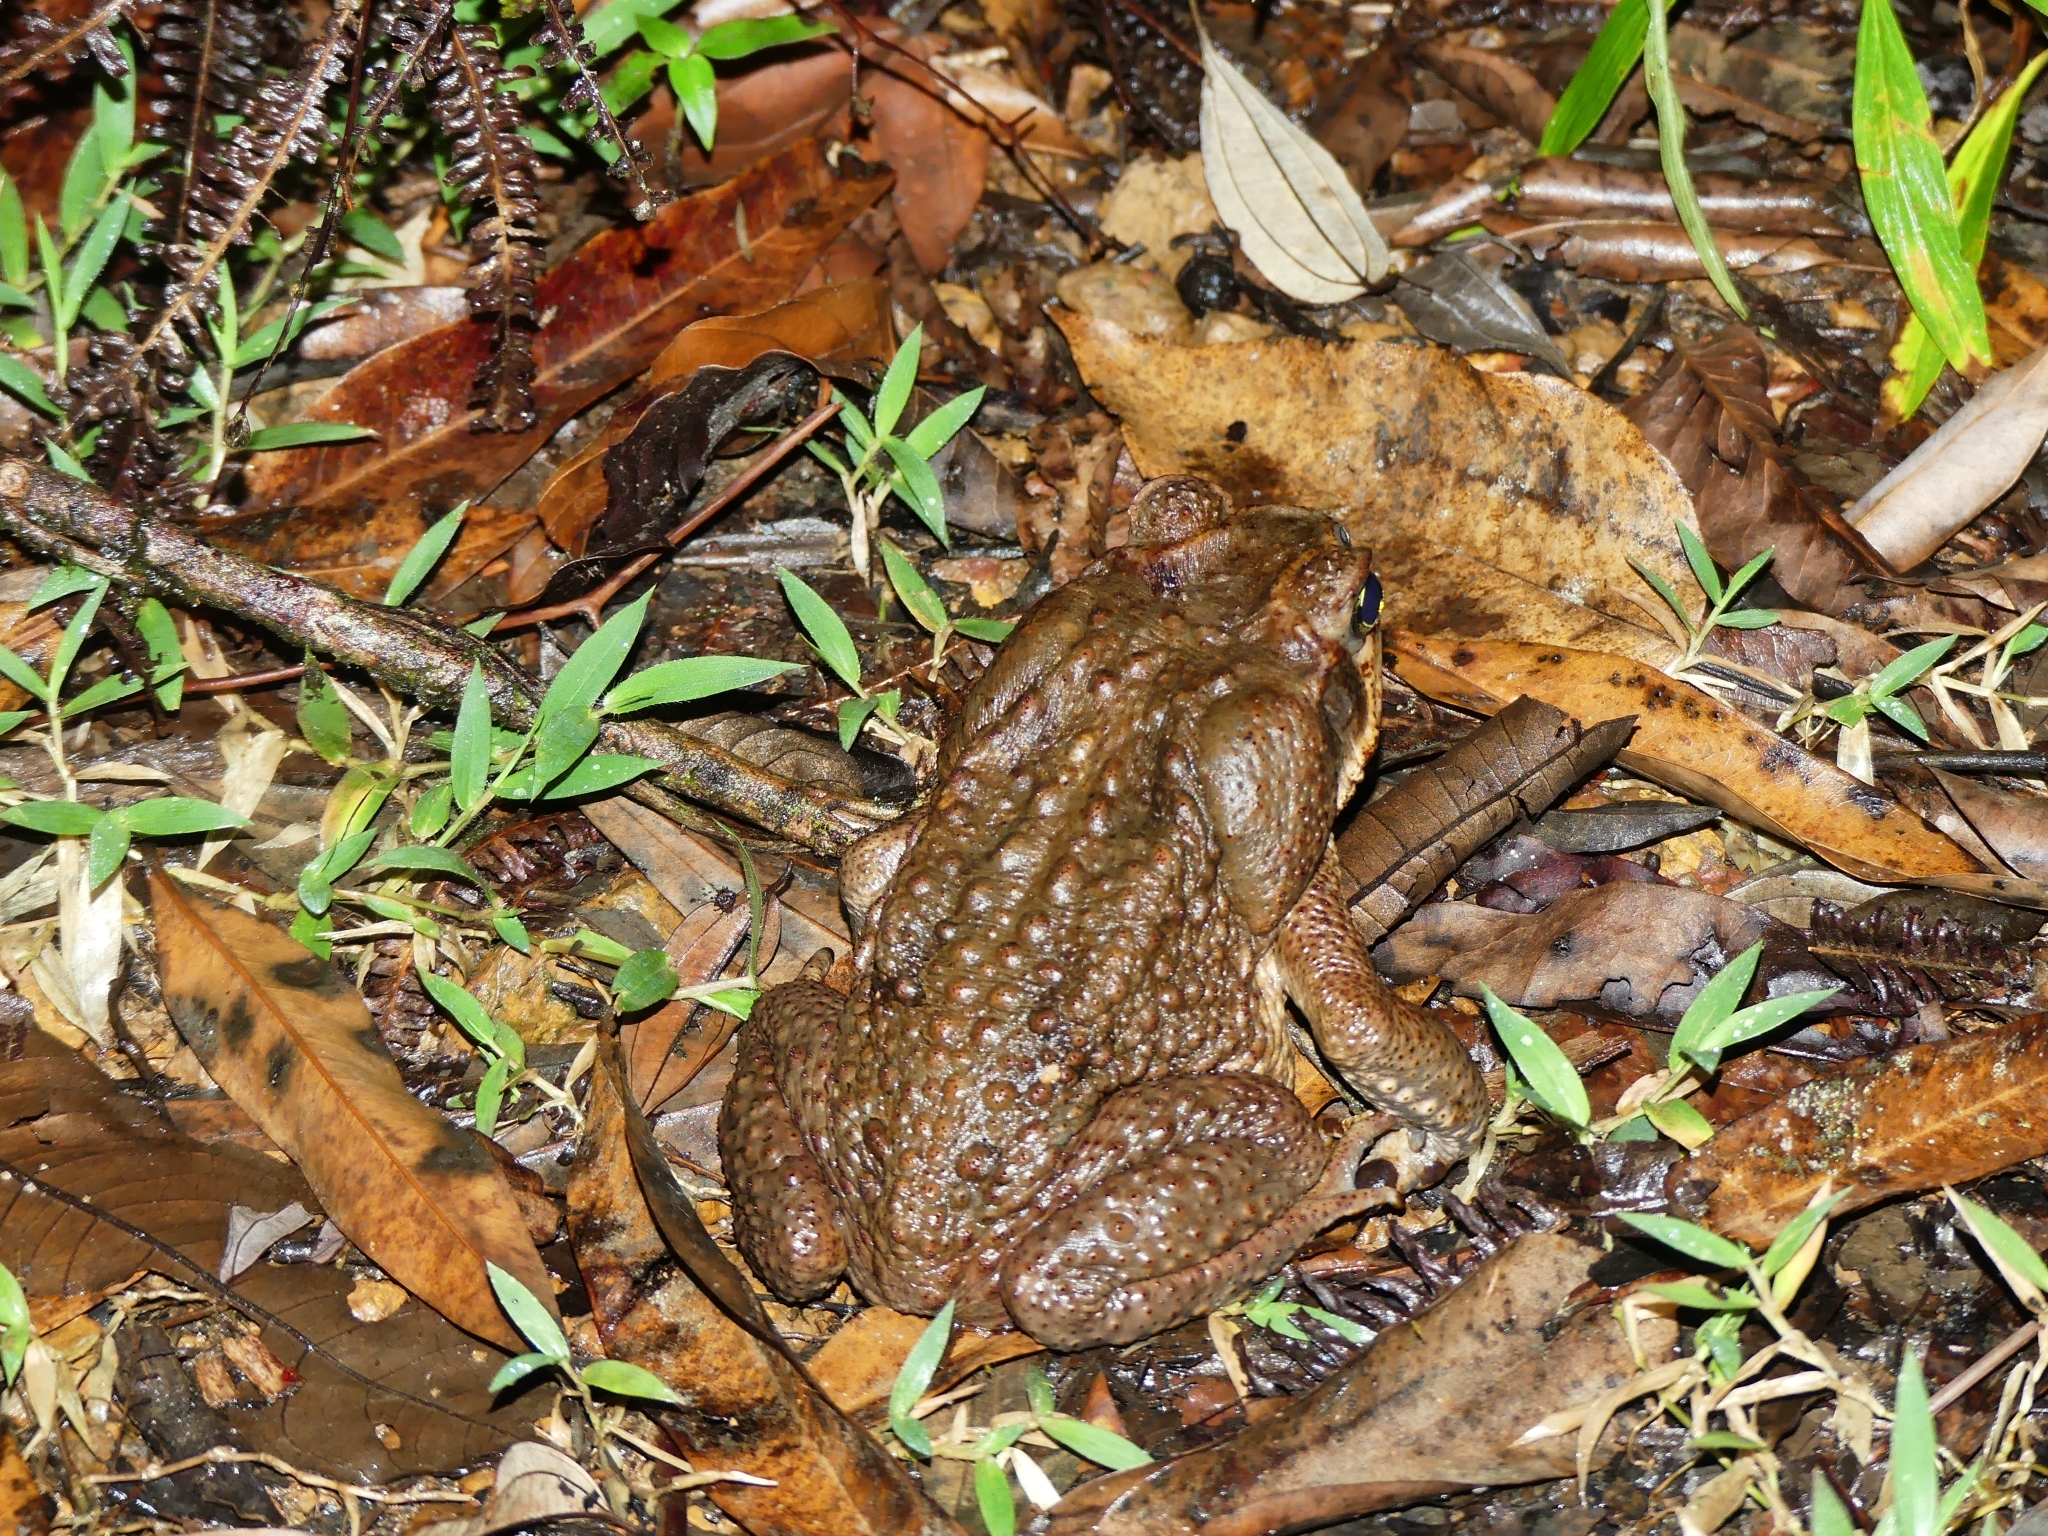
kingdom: Animalia
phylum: Chordata
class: Amphibia
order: Anura
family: Bufonidae
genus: Rhinella
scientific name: Rhinella marina
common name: Cane toad
